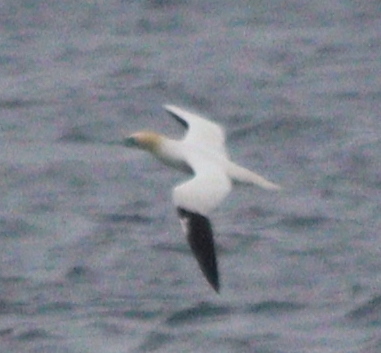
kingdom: Animalia
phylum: Chordata
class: Aves
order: Suliformes
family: Sulidae
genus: Morus
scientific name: Morus bassanus
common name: Northern gannet
